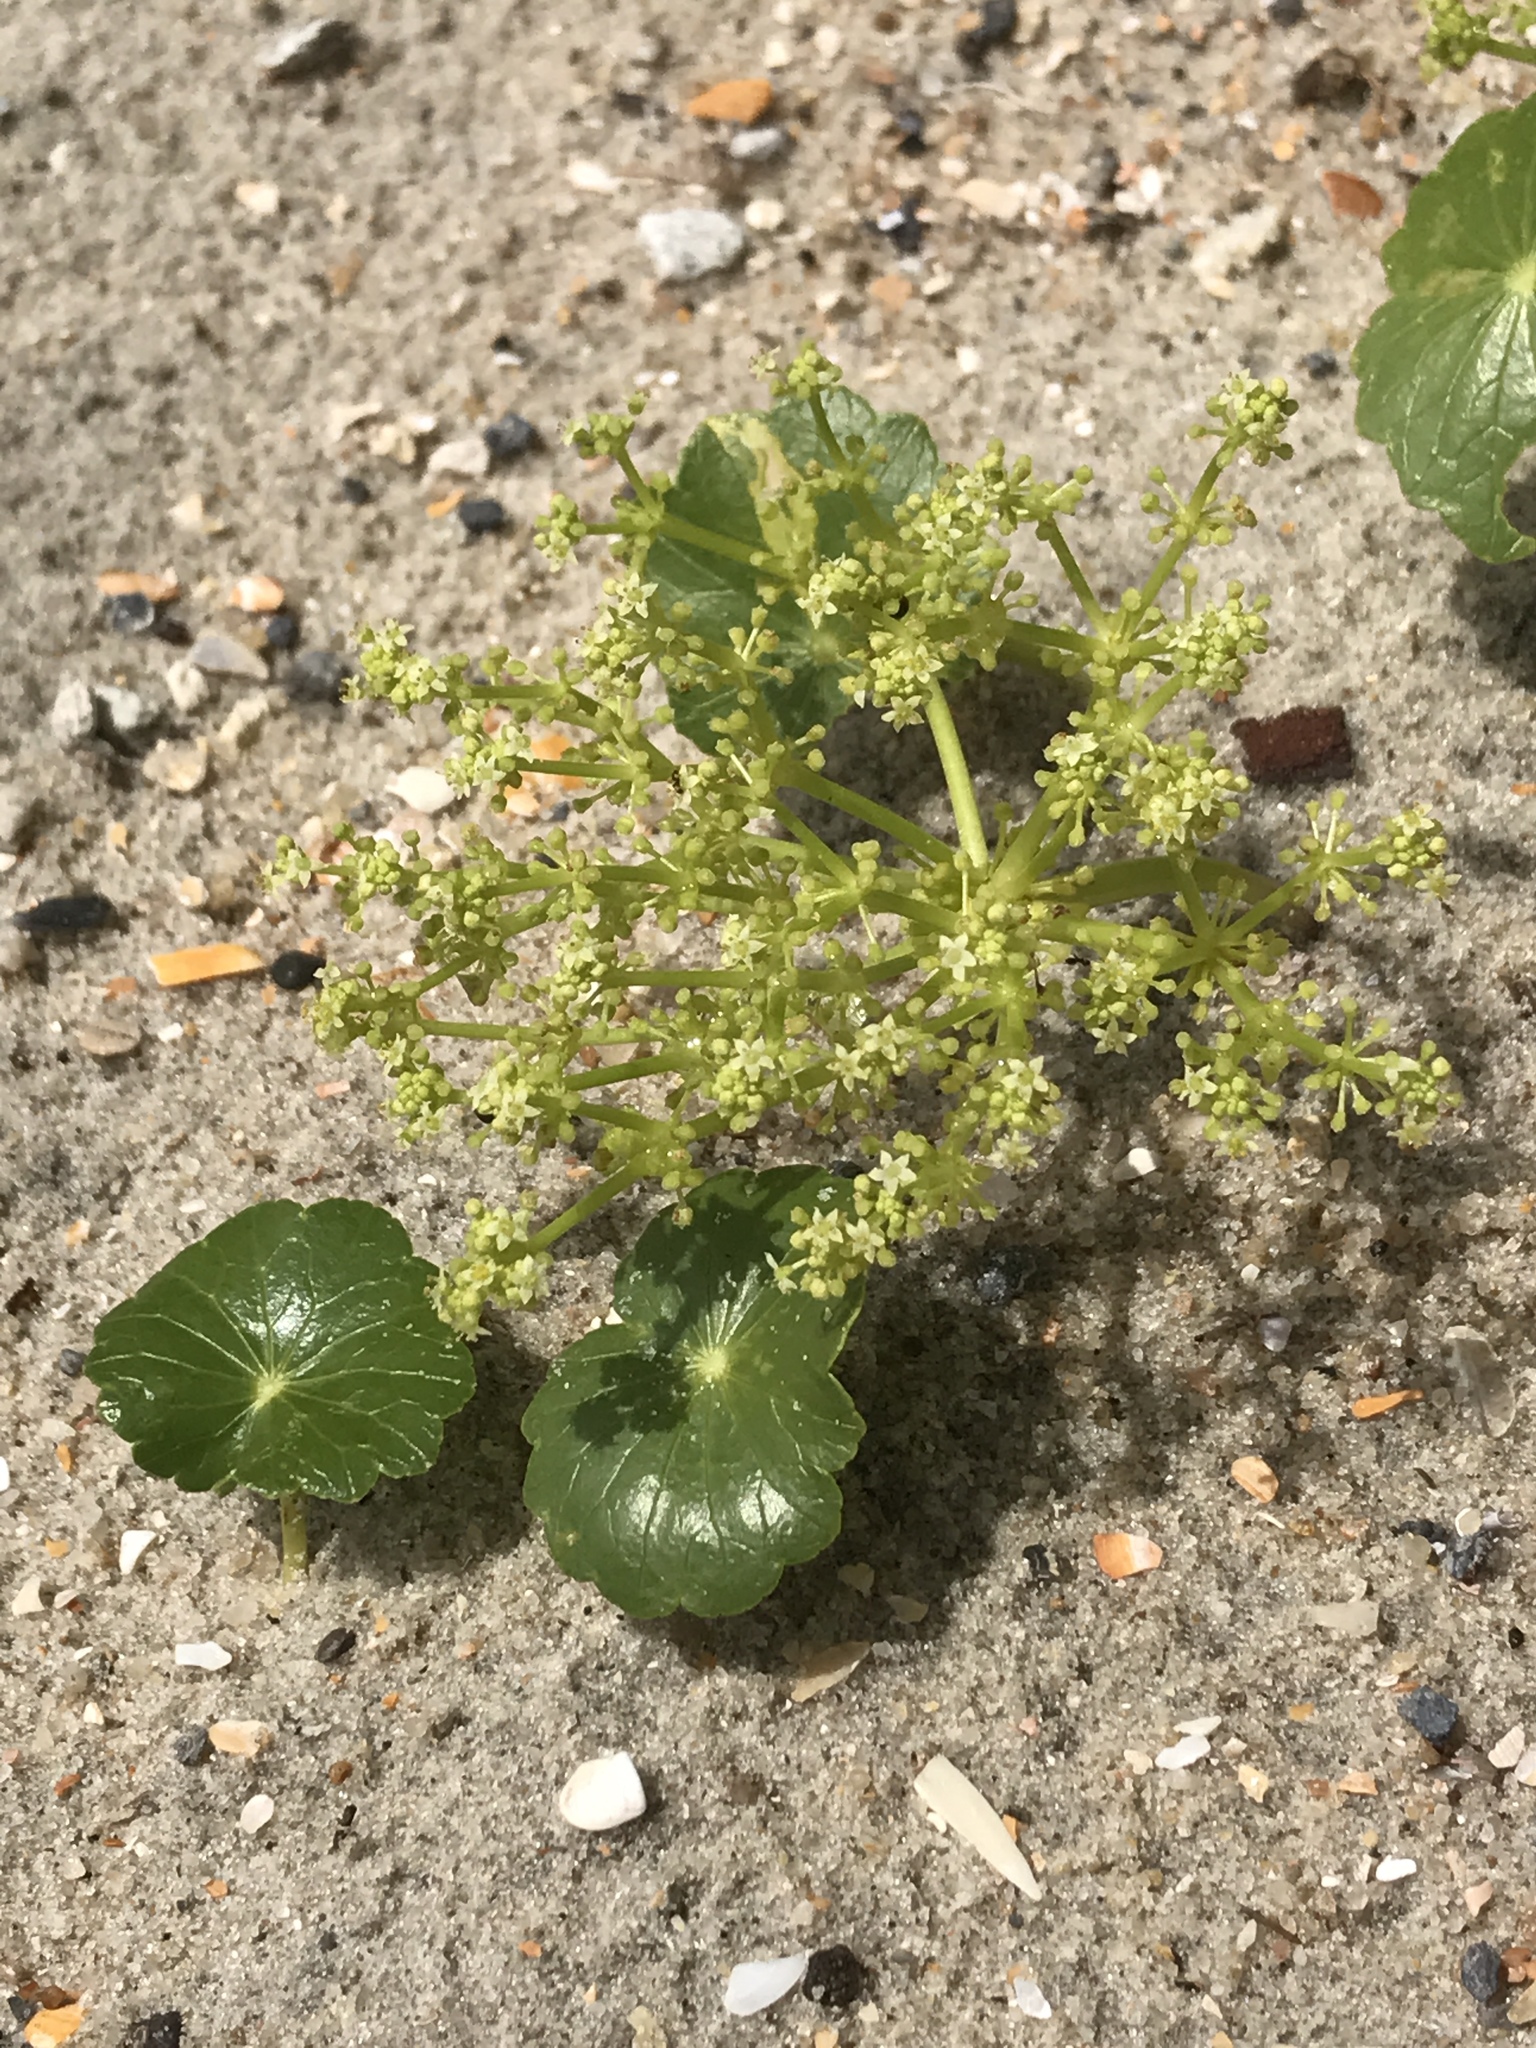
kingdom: Plantae
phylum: Tracheophyta
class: Magnoliopsida
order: Apiales
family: Araliaceae
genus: Hydrocotyle
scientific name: Hydrocotyle bonariensis
